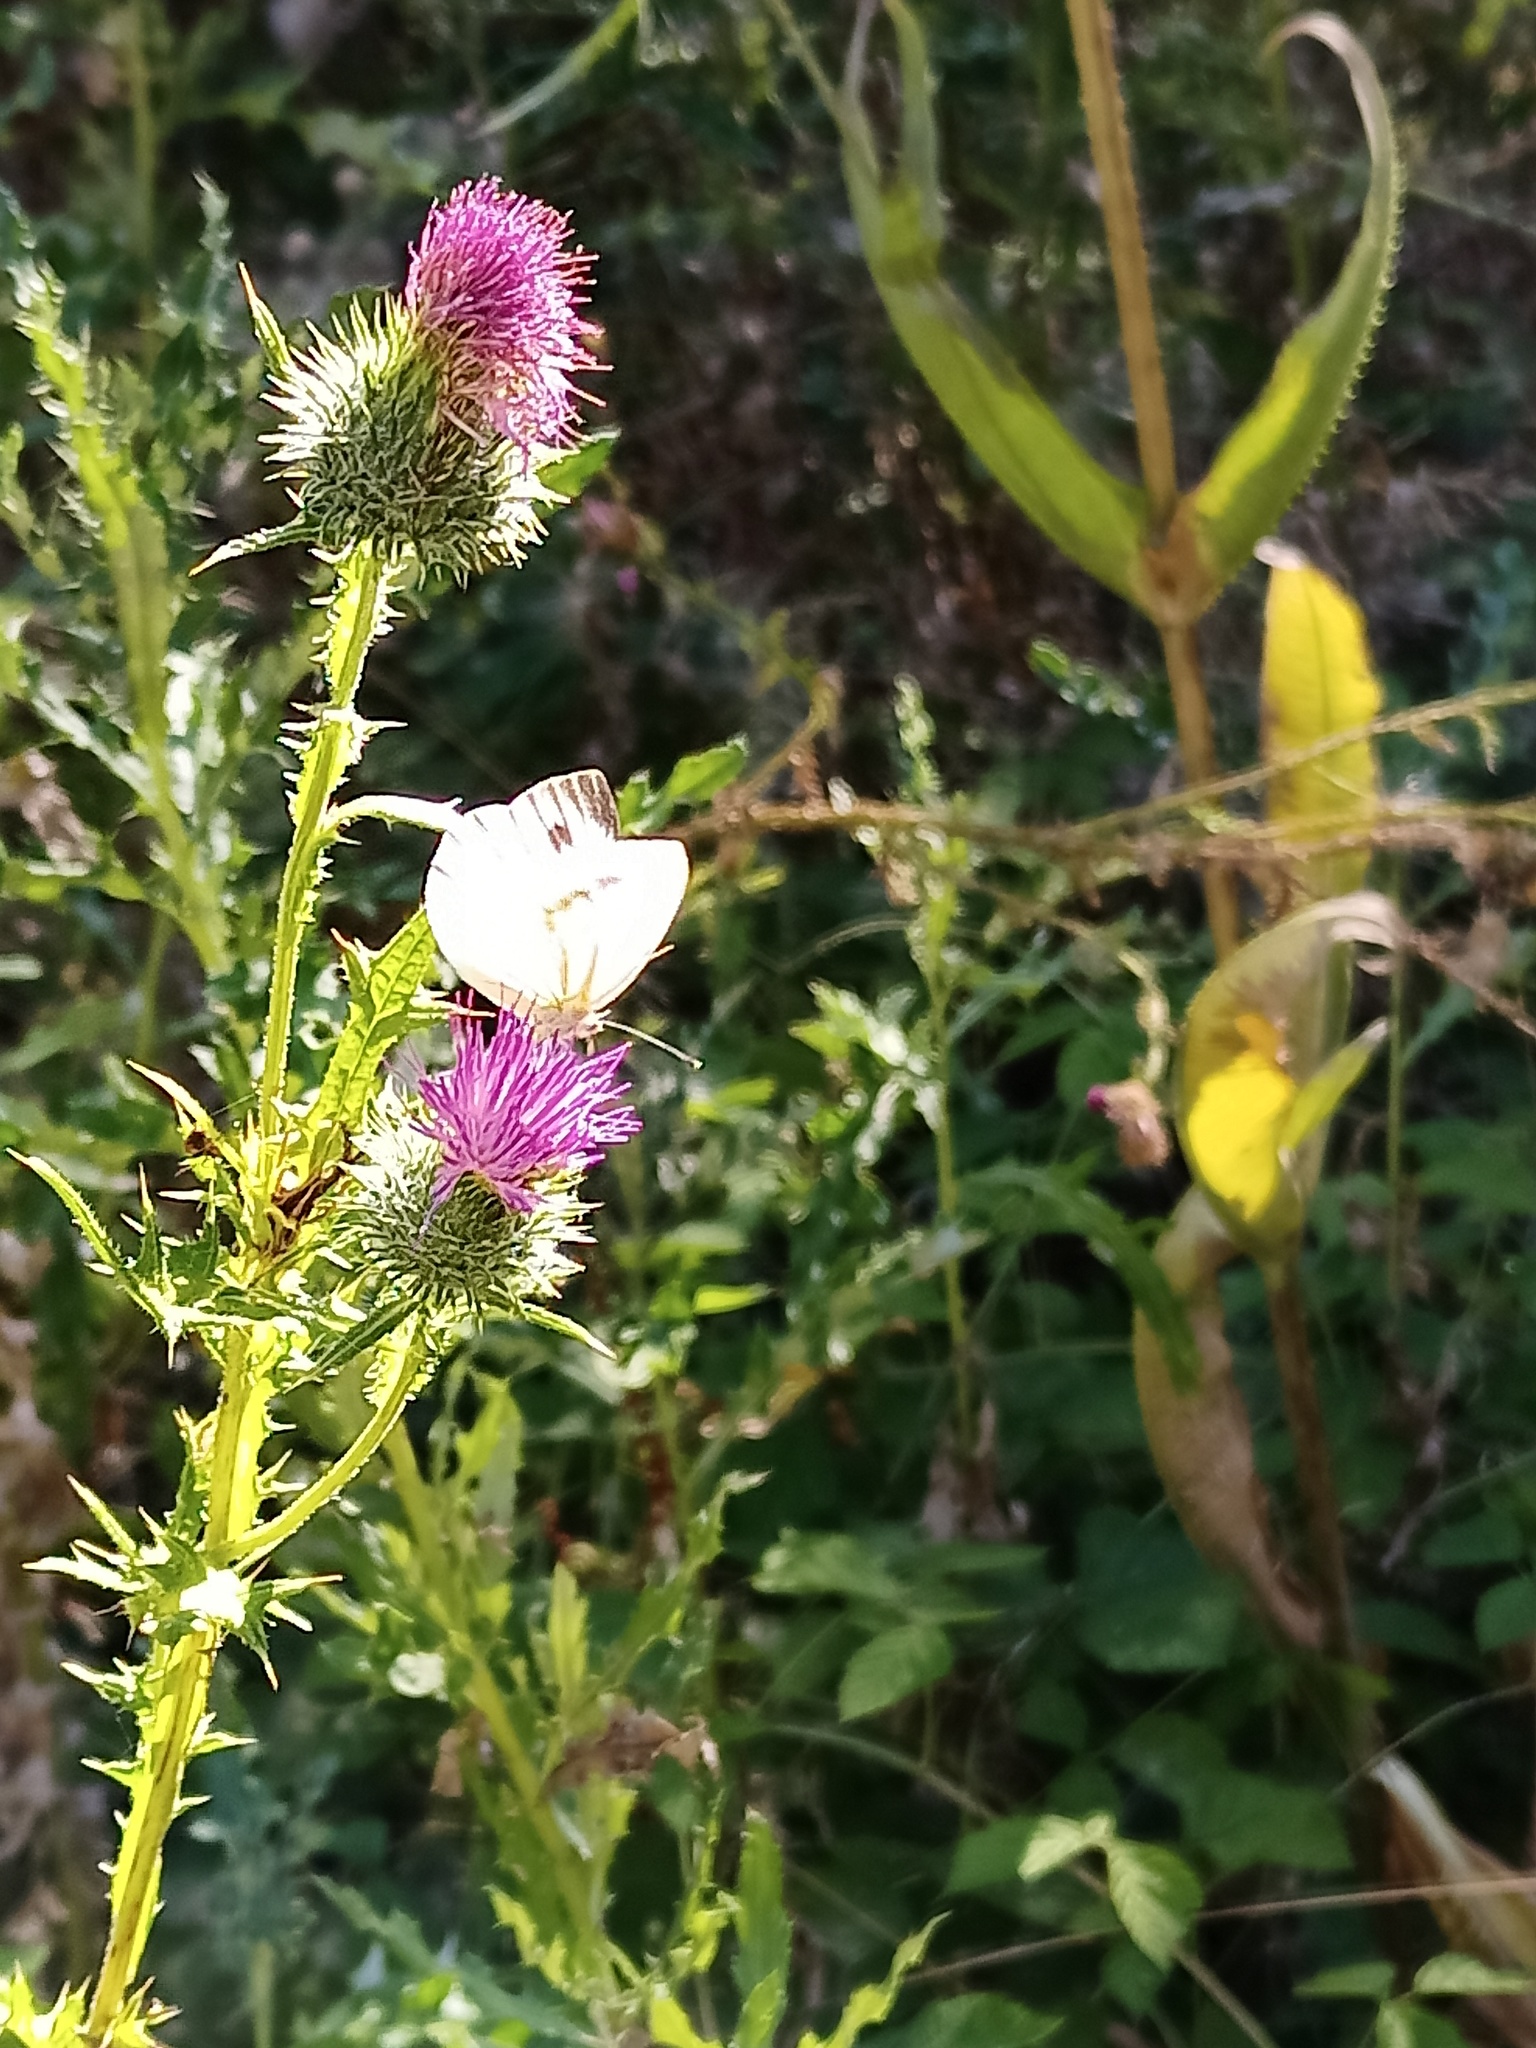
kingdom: Animalia
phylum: Arthropoda
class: Insecta
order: Lepidoptera
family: Pieridae
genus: Pieris
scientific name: Pieris napi
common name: Green-veined white
